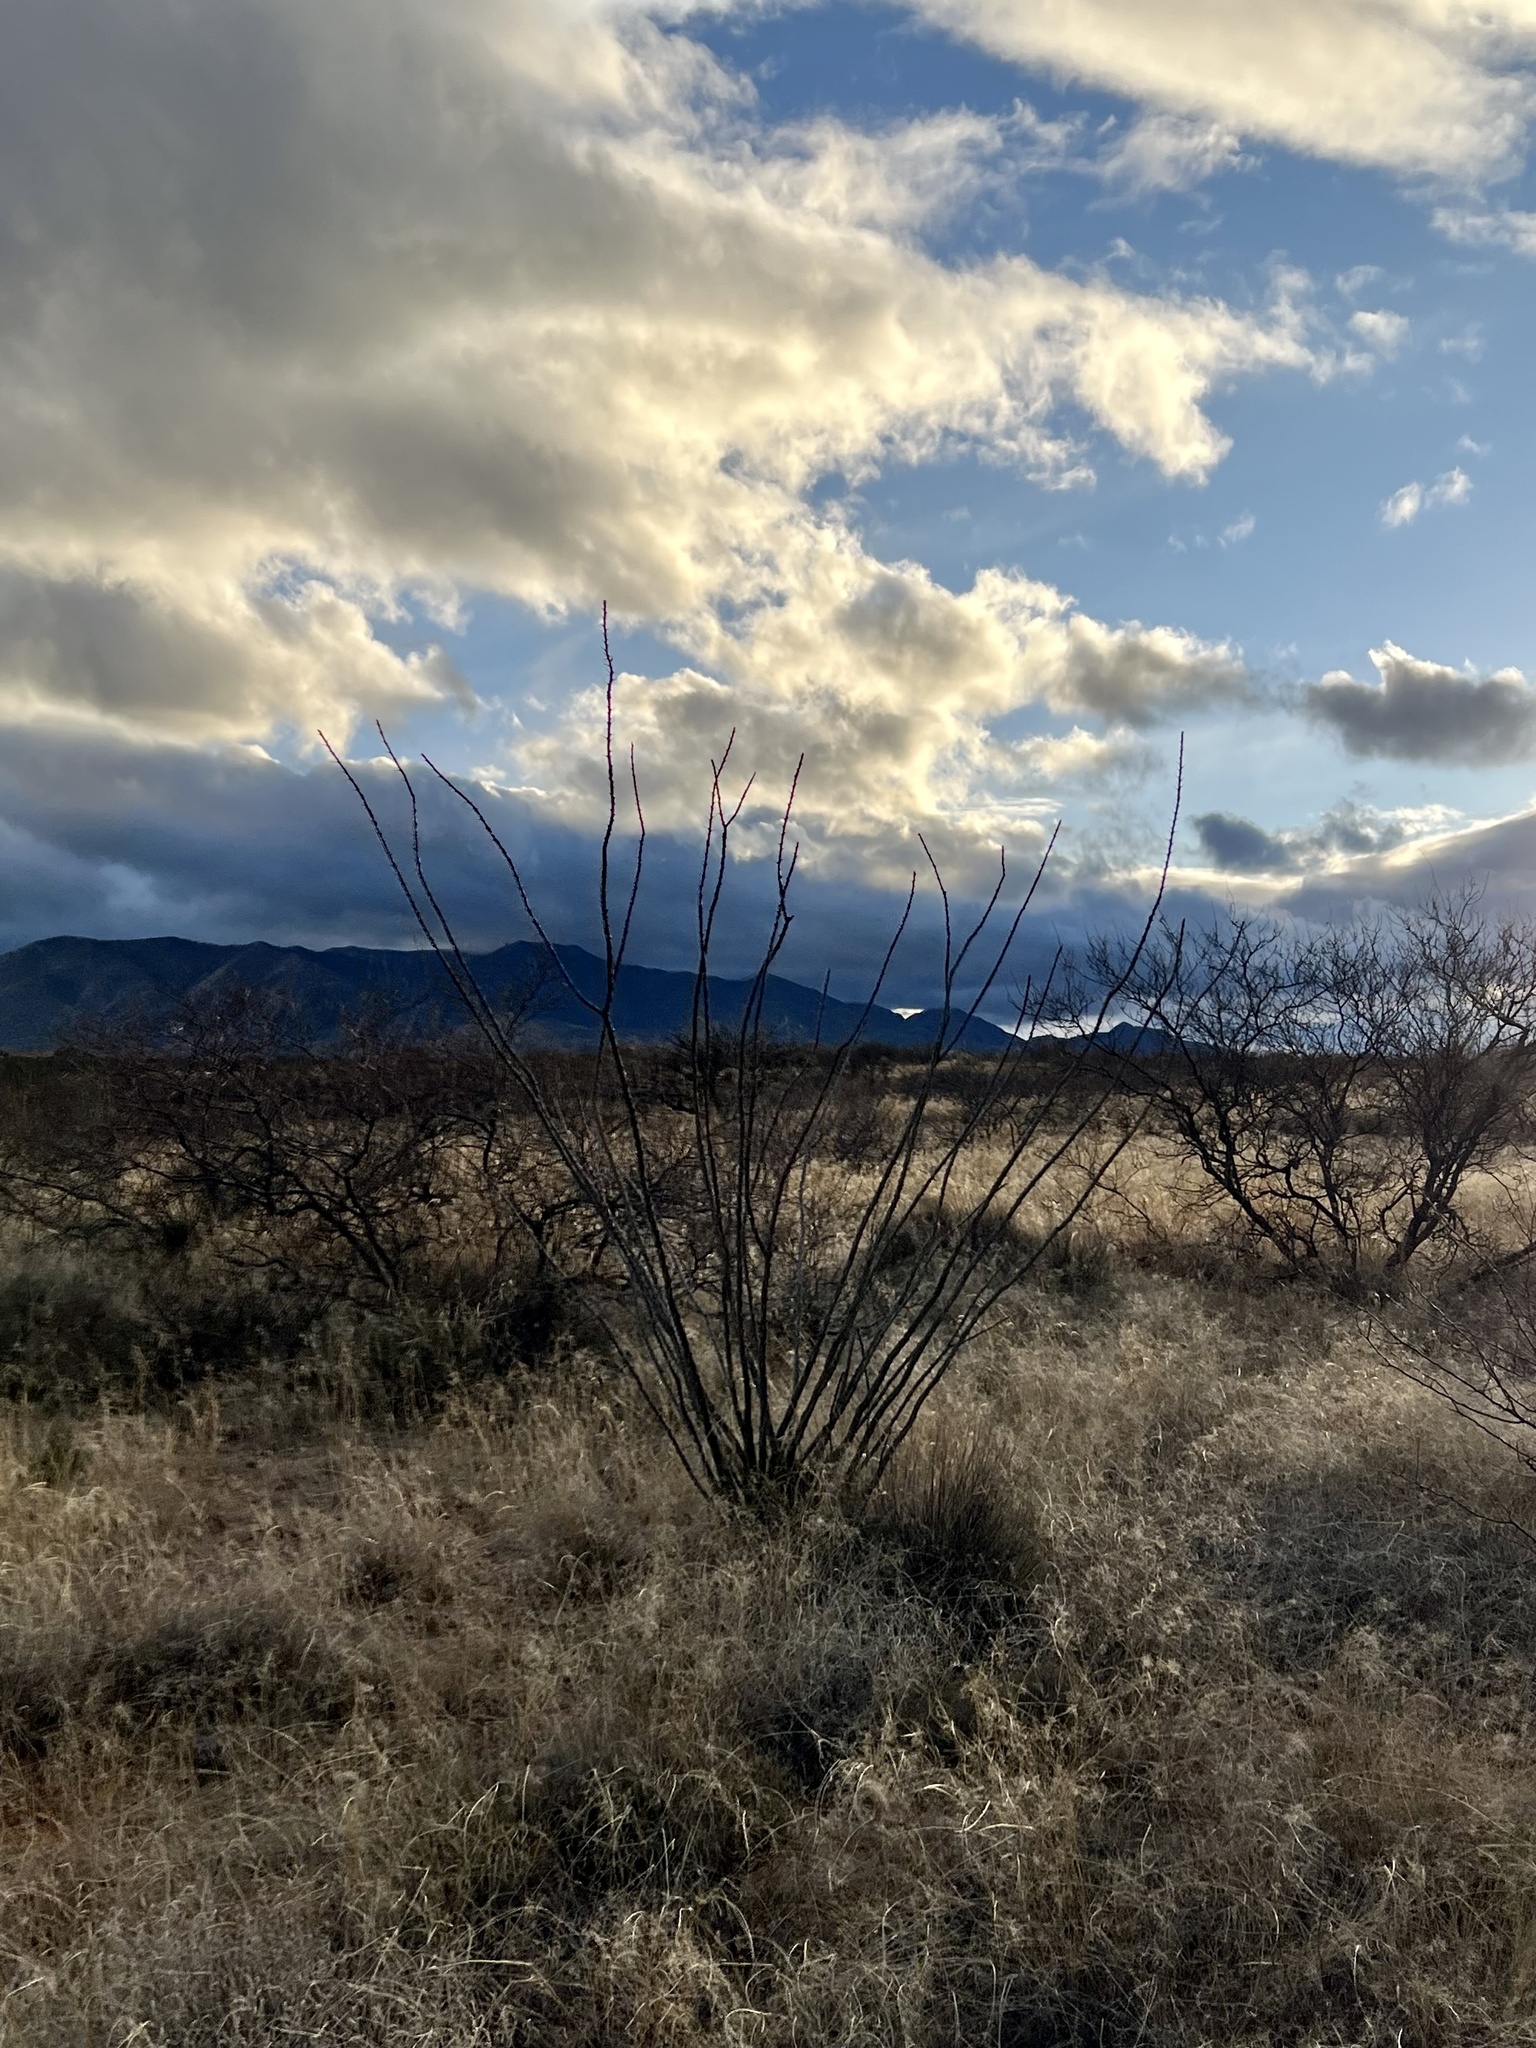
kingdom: Plantae
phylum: Tracheophyta
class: Magnoliopsida
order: Ericales
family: Fouquieriaceae
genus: Fouquieria
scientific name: Fouquieria splendens
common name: Vine-cactus
